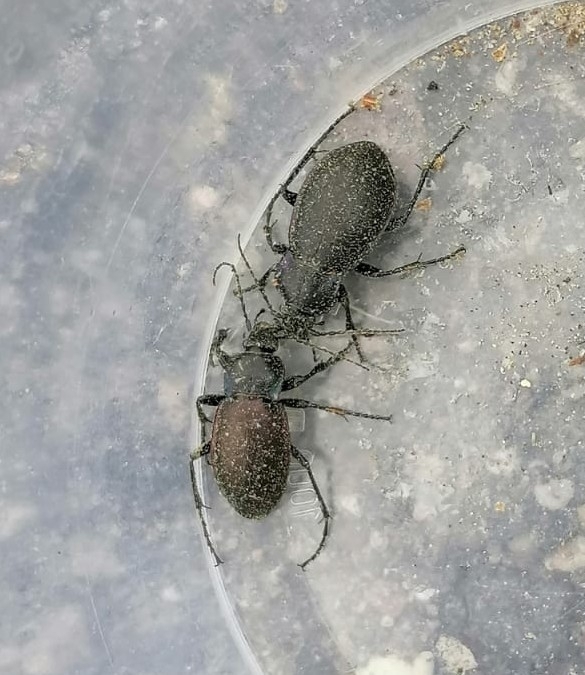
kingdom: Animalia
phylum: Arthropoda
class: Insecta
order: Coleoptera
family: Carabidae
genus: Carabus
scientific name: Carabus nemoralis
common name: European ground beetle
